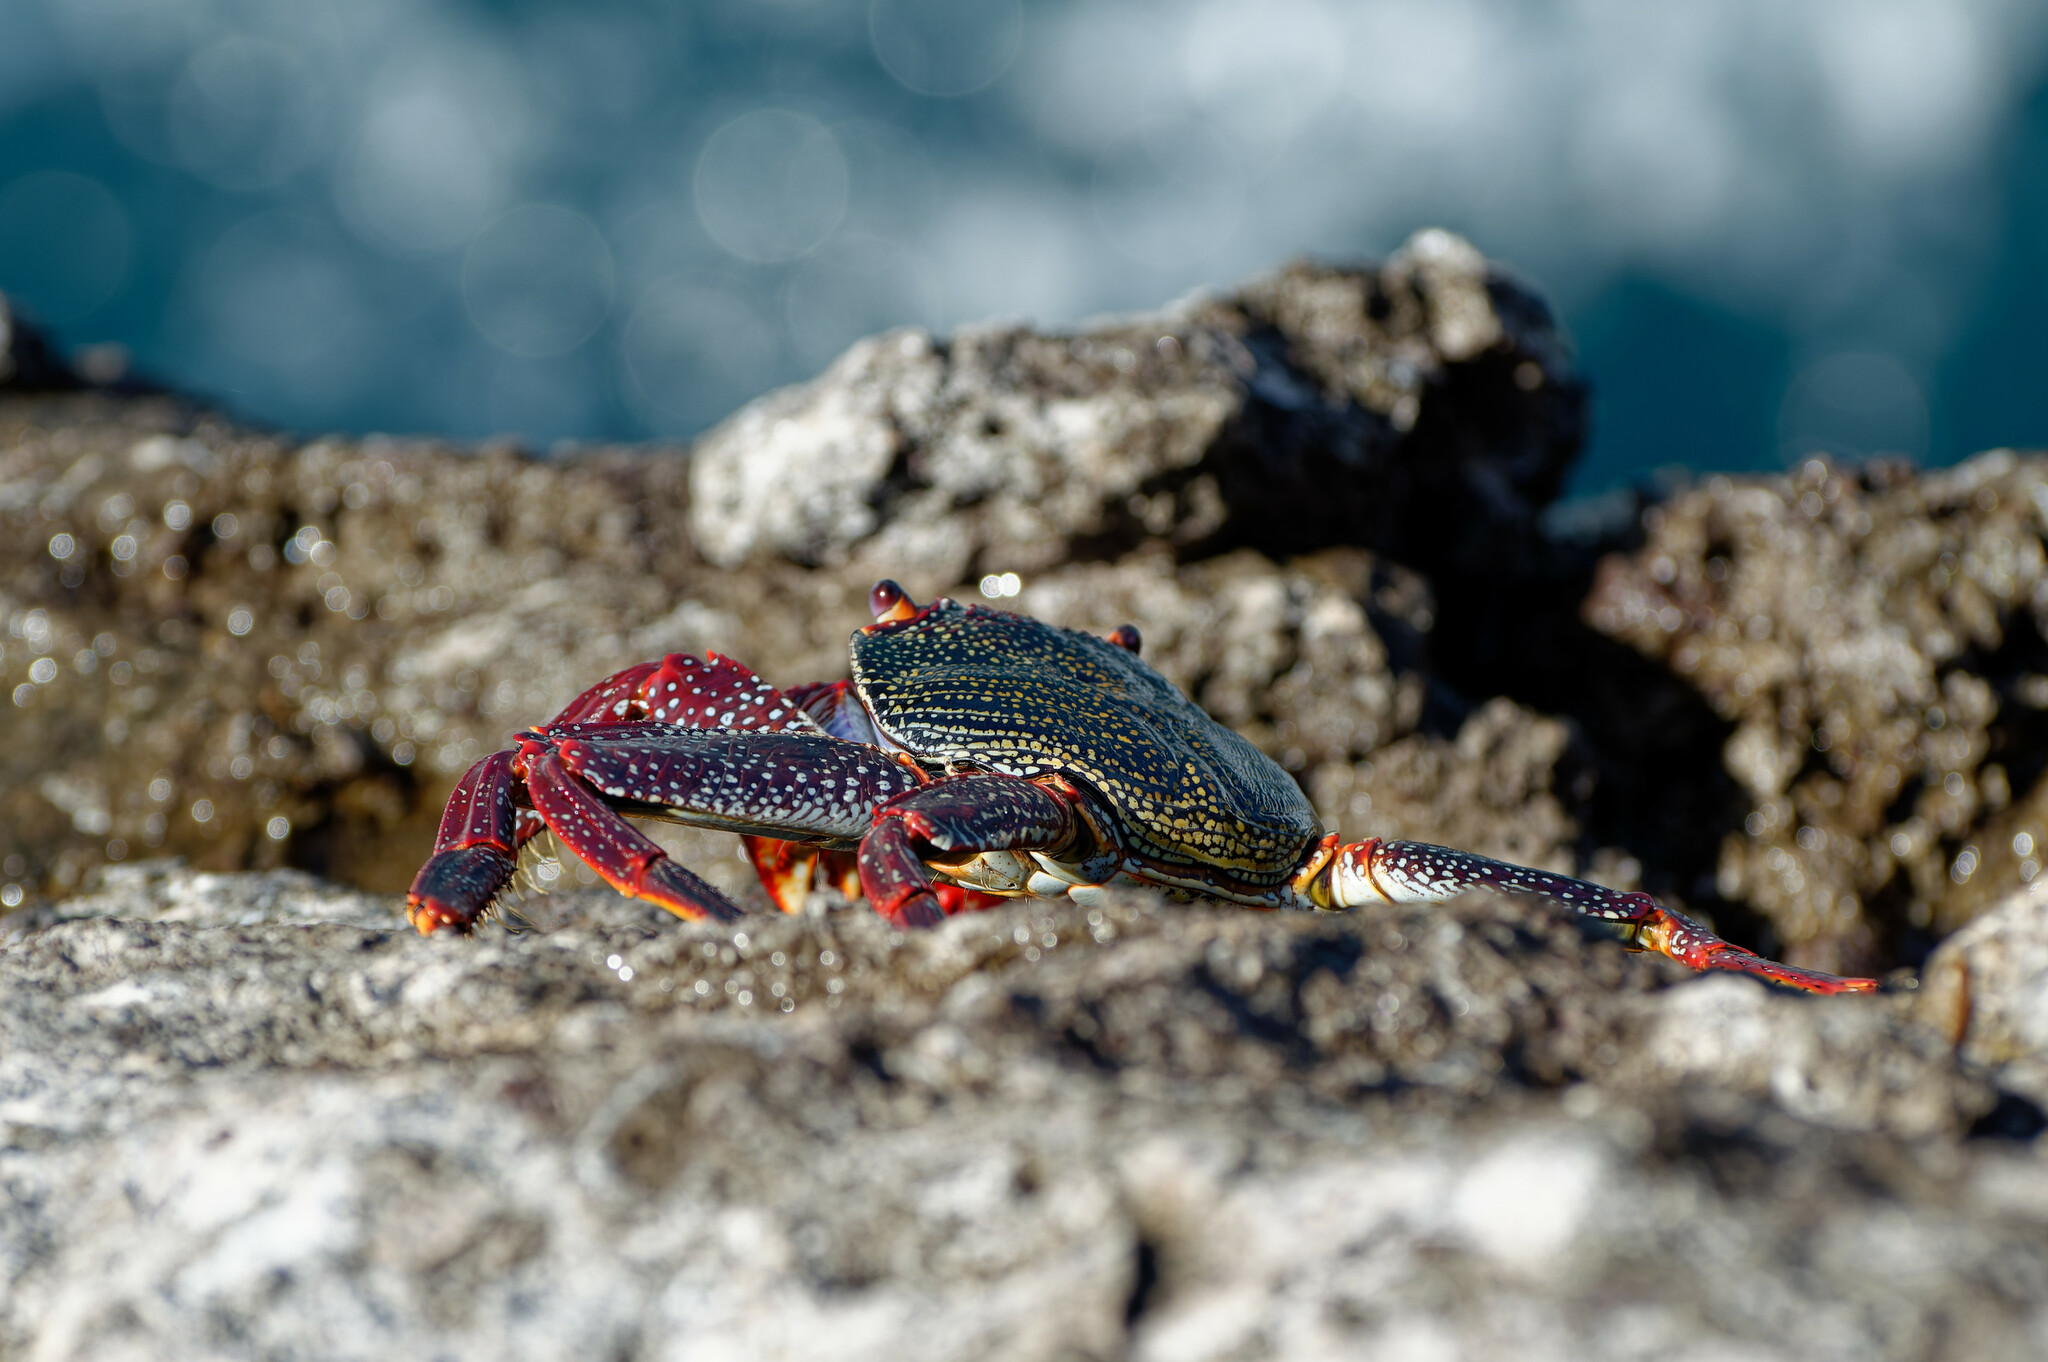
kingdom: Animalia
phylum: Arthropoda
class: Malacostraca
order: Decapoda
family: Grapsidae
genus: Grapsus
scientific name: Grapsus adscensionis
